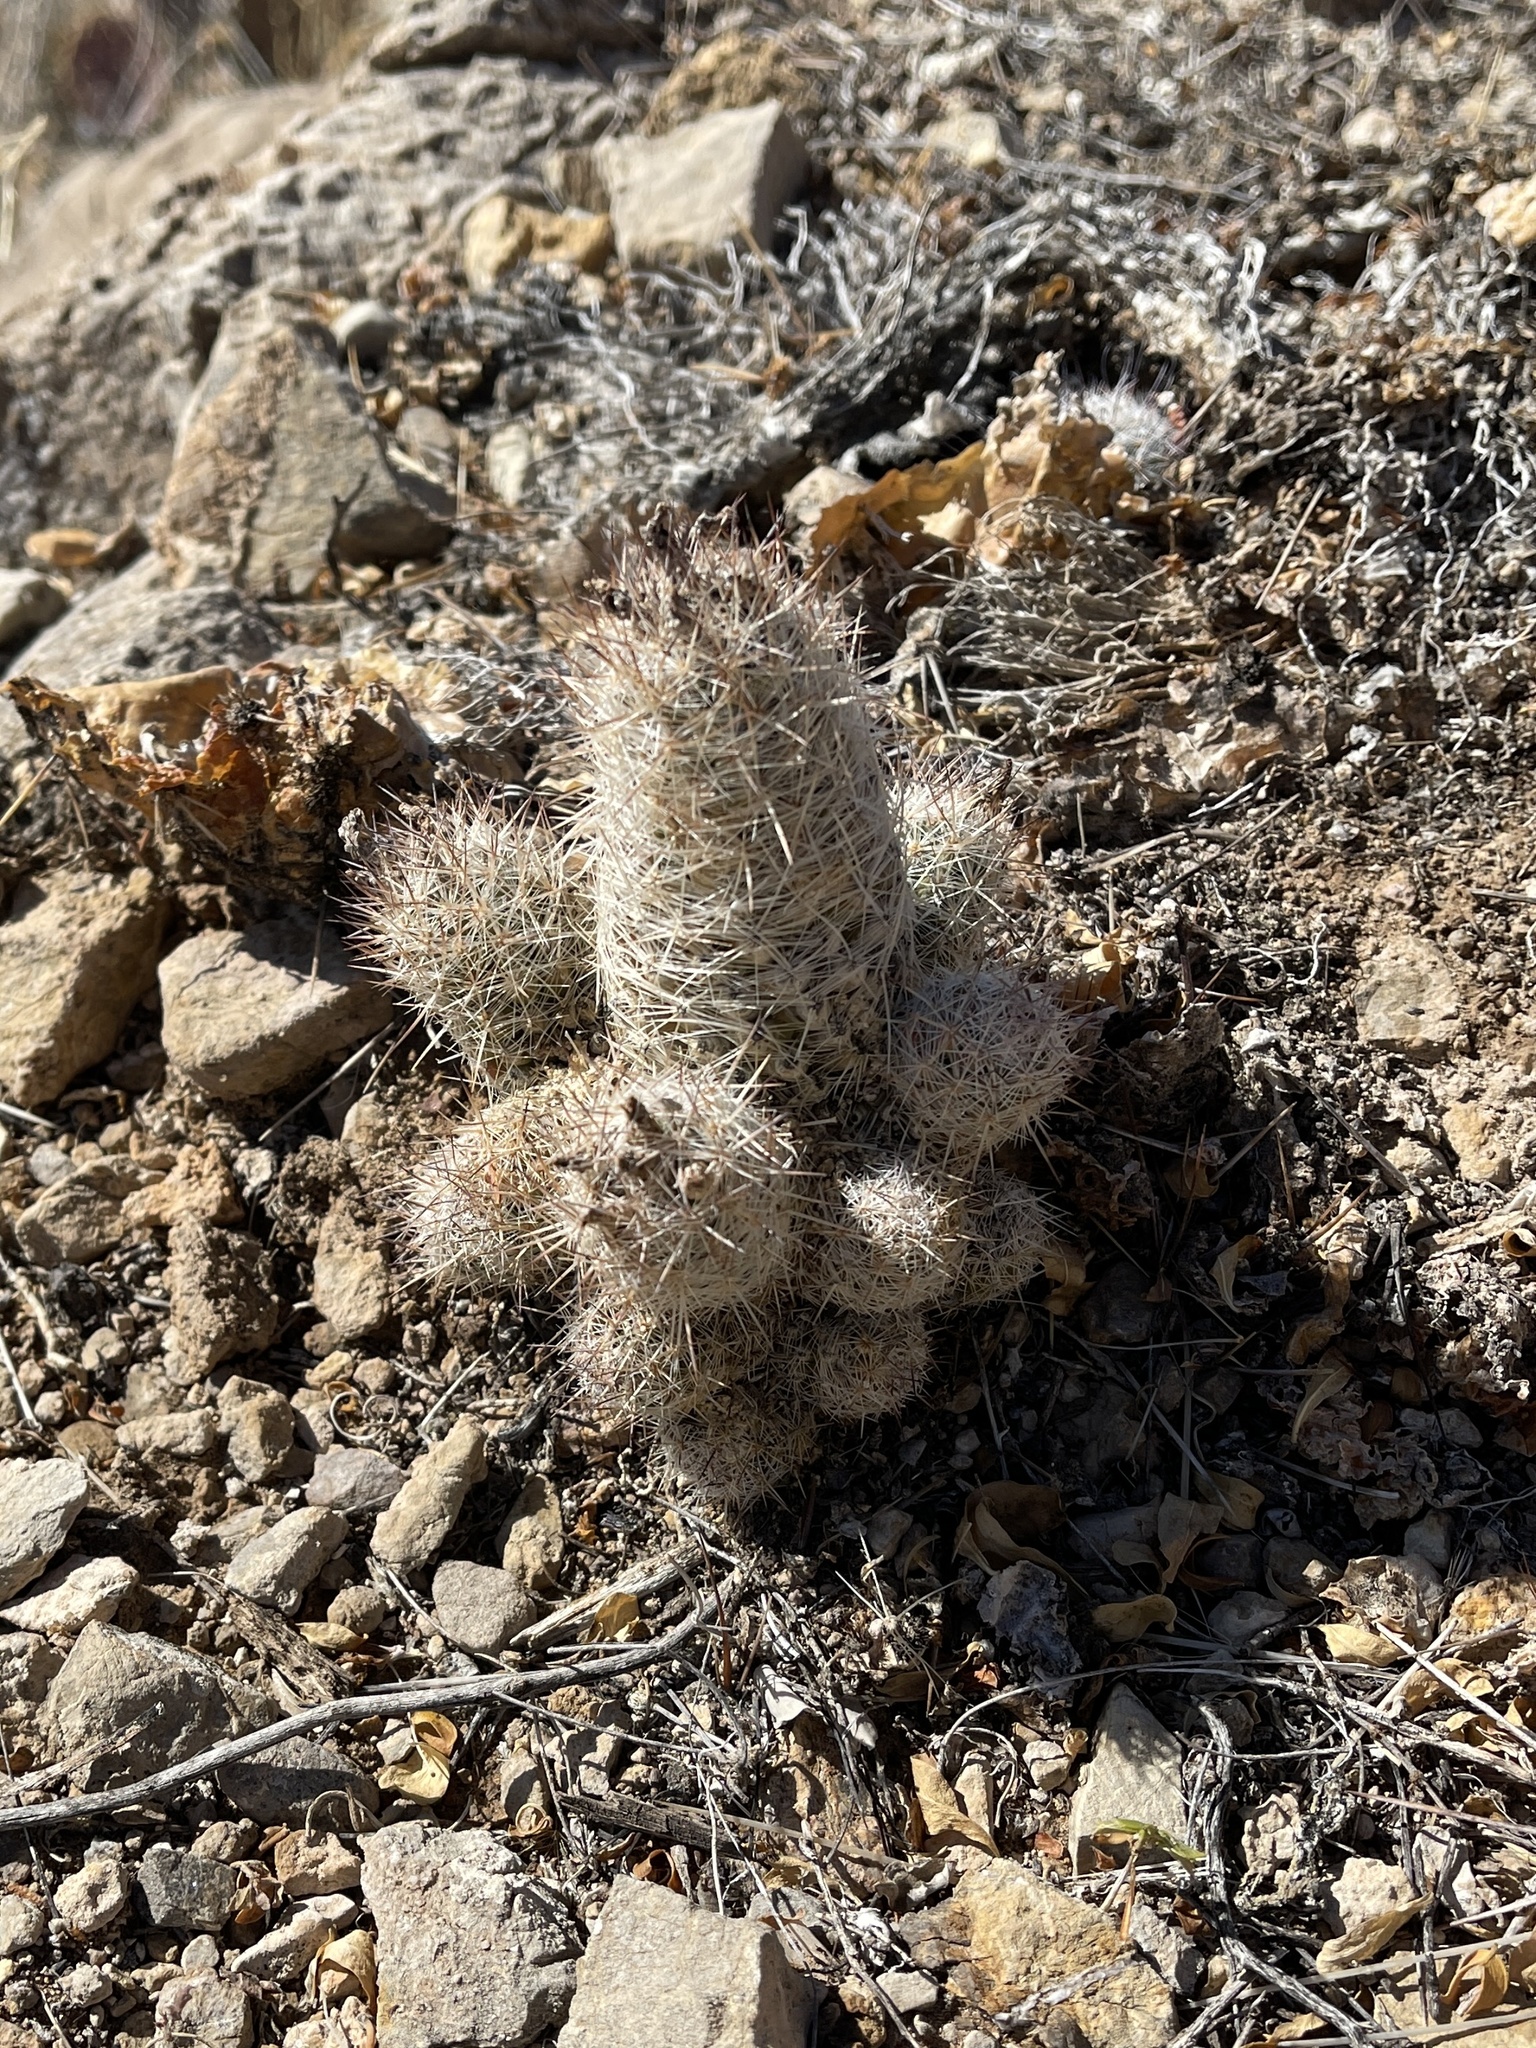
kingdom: Plantae
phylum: Tracheophyta
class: Magnoliopsida
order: Caryophyllales
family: Cactaceae
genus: Pelecyphora
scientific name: Pelecyphora tuberculosa
